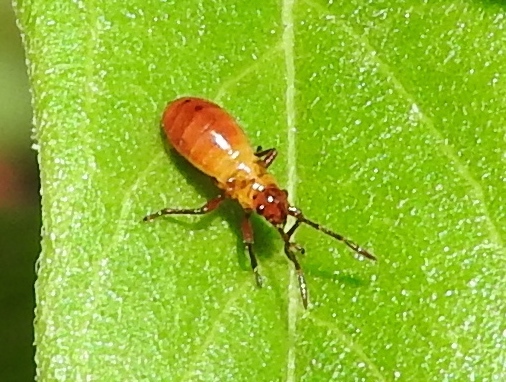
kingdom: Animalia
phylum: Arthropoda
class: Insecta
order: Hemiptera
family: Lygaeidae
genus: Oncopeltus
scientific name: Oncopeltus guttaloides
